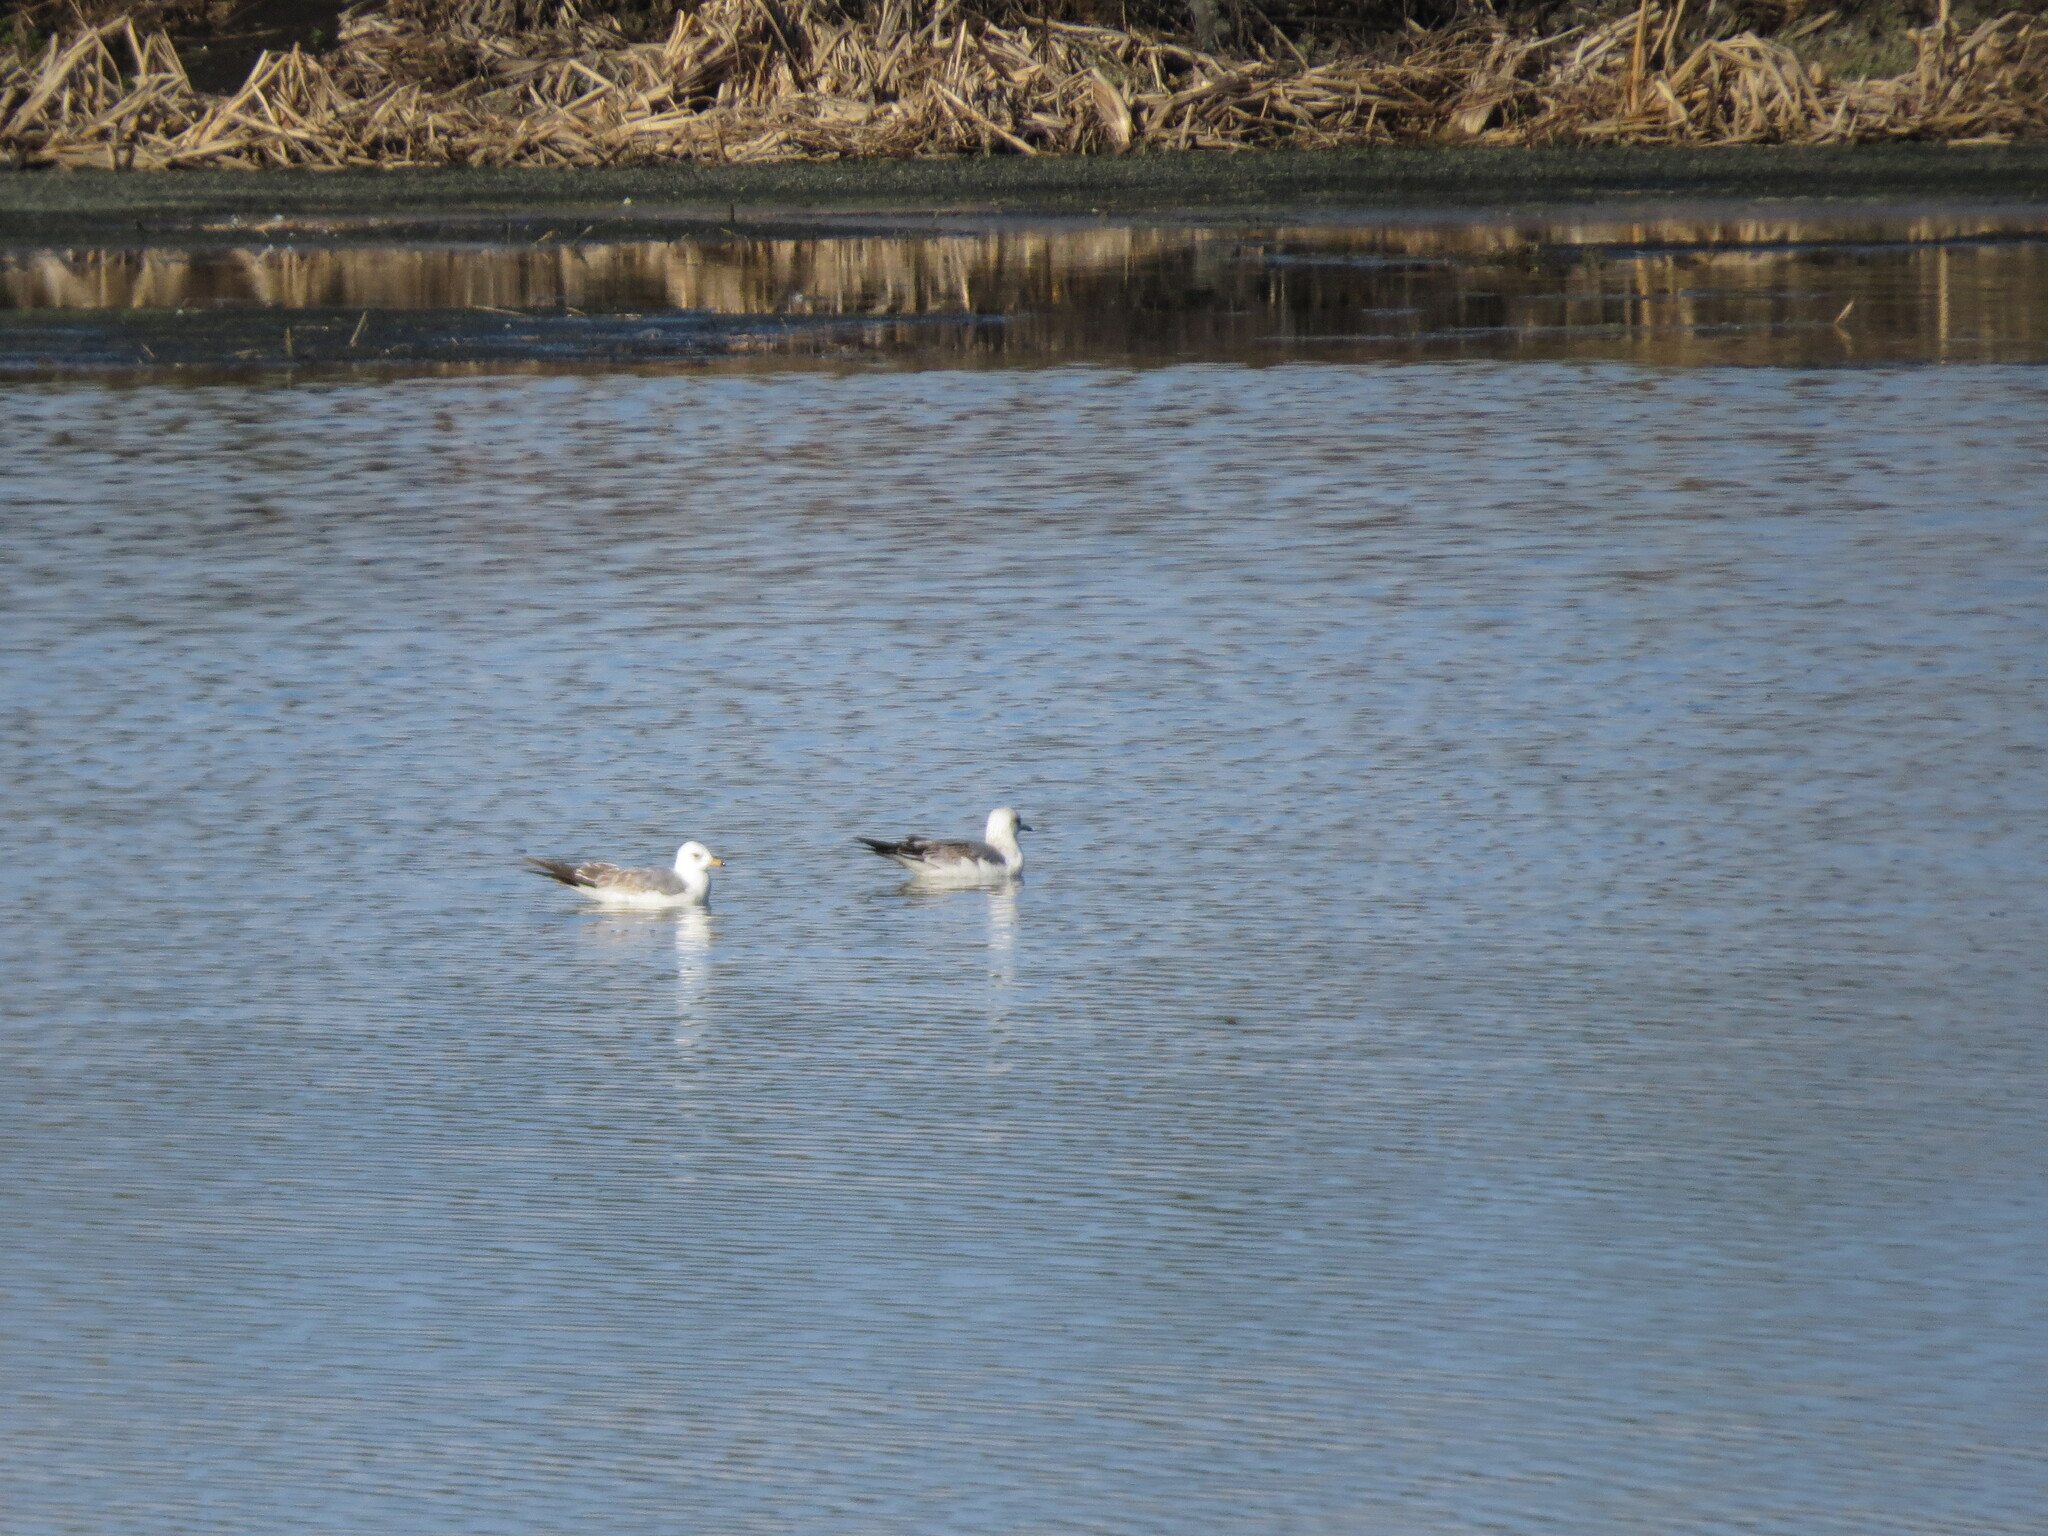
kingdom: Animalia
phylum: Chordata
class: Aves
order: Charadriiformes
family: Laridae
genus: Larus
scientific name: Larus canus
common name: Mew gull
